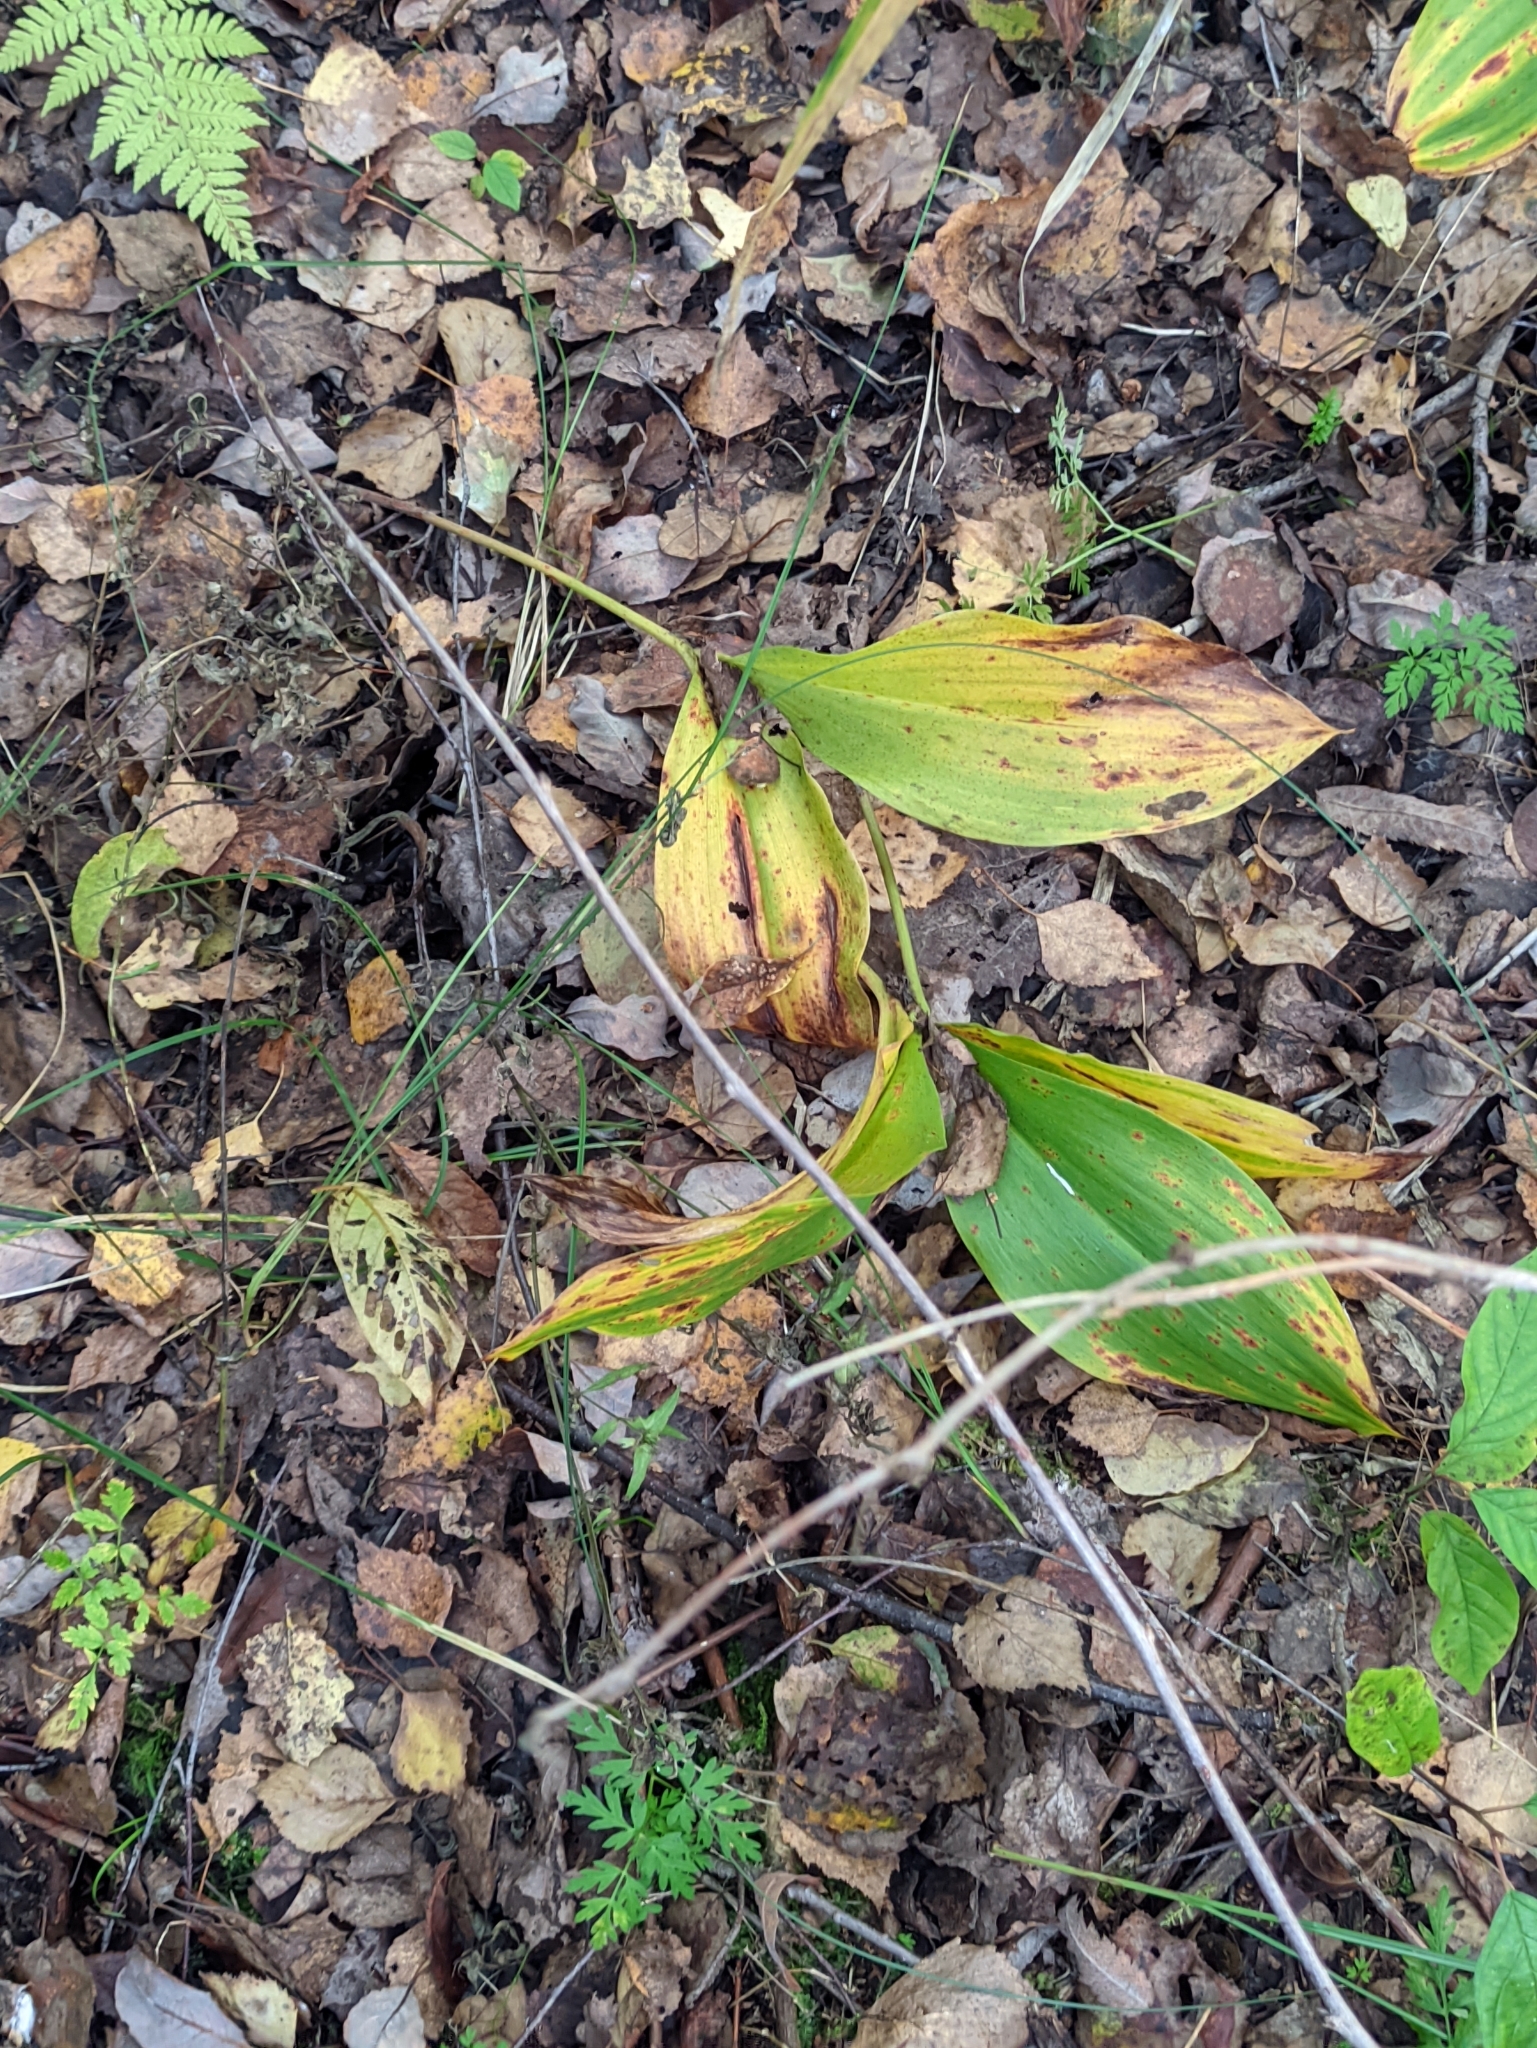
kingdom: Plantae
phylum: Tracheophyta
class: Liliopsida
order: Asparagales
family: Asparagaceae
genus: Convallaria
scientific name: Convallaria majalis
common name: Lily-of-the-valley
